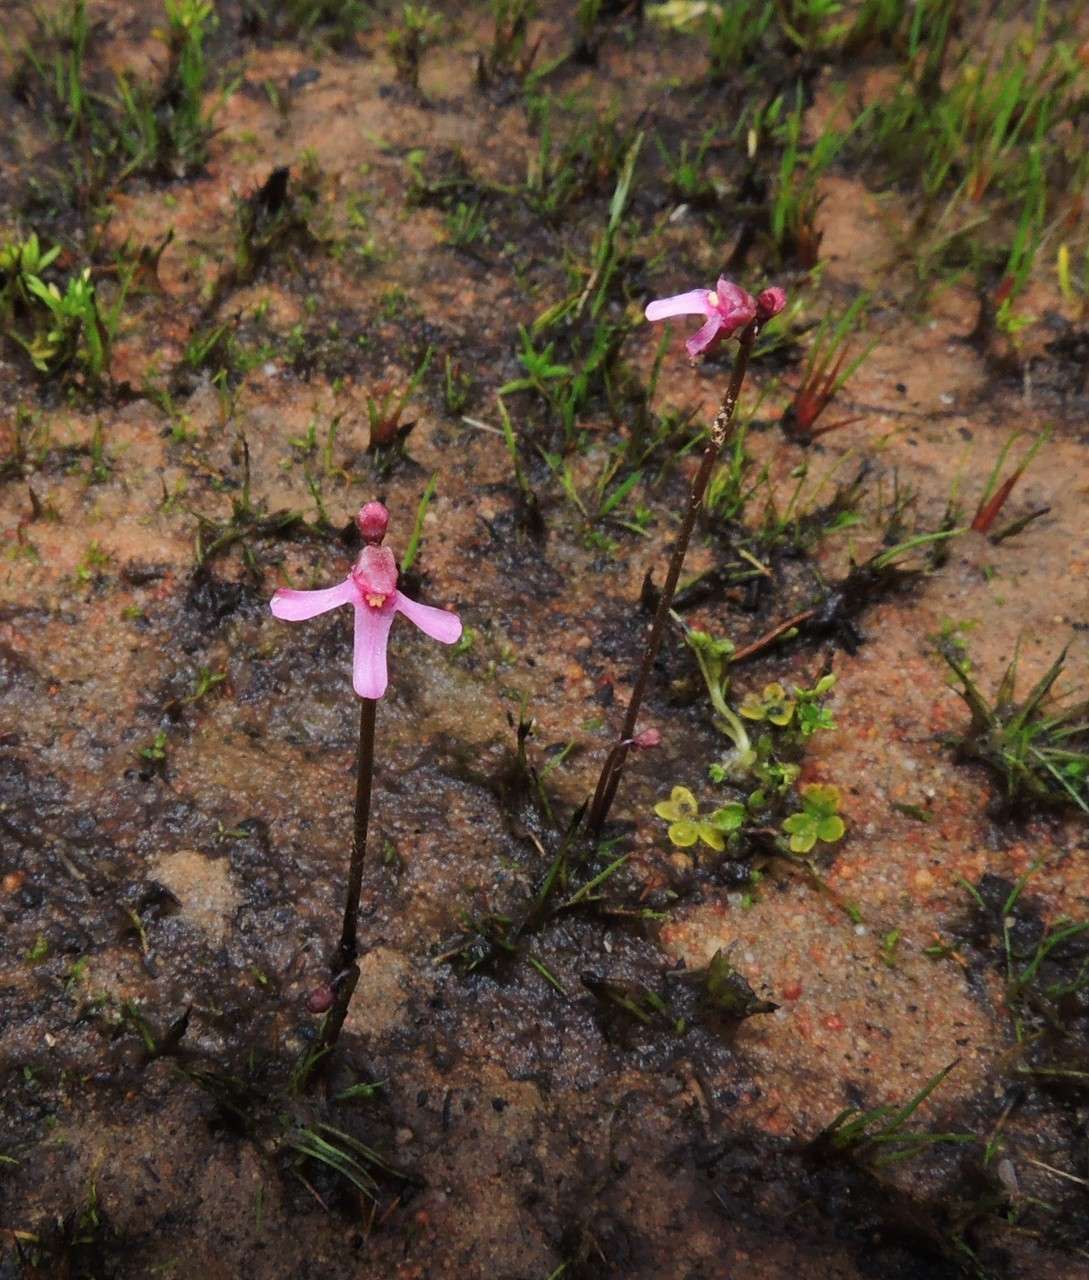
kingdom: Plantae
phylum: Tracheophyta
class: Magnoliopsida
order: Lamiales
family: Lentibulariaceae
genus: Utricularia
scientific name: Utricularia tenella
